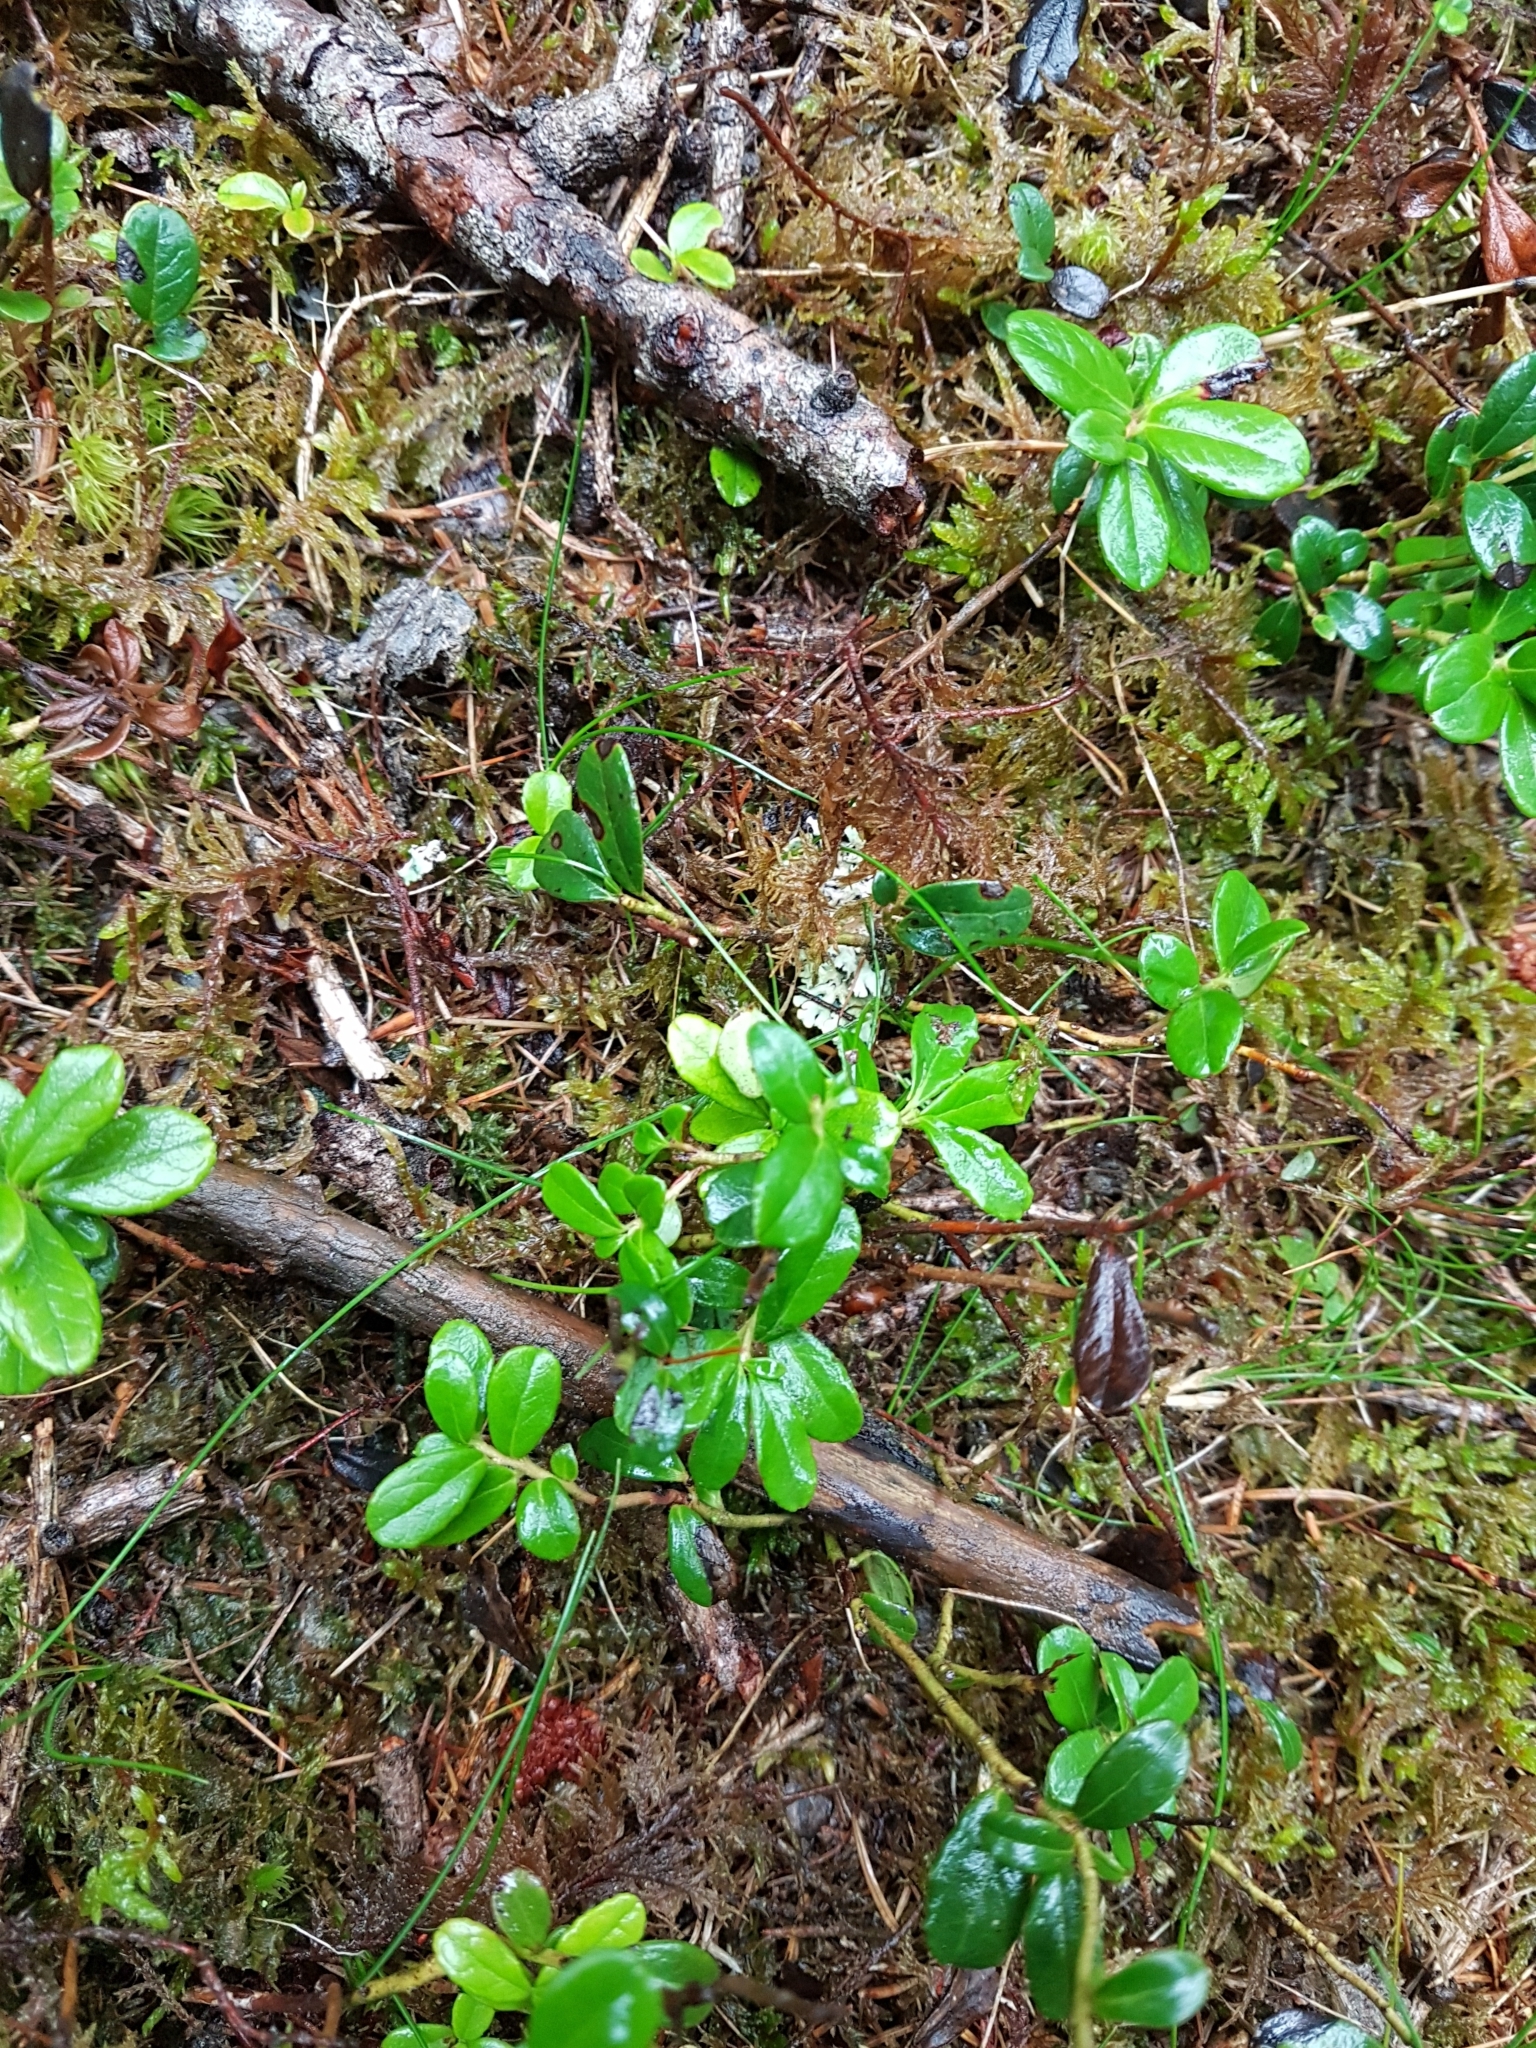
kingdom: Plantae
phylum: Tracheophyta
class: Magnoliopsida
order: Ericales
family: Ericaceae
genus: Vaccinium
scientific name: Vaccinium vitis-idaea
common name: Cowberry
